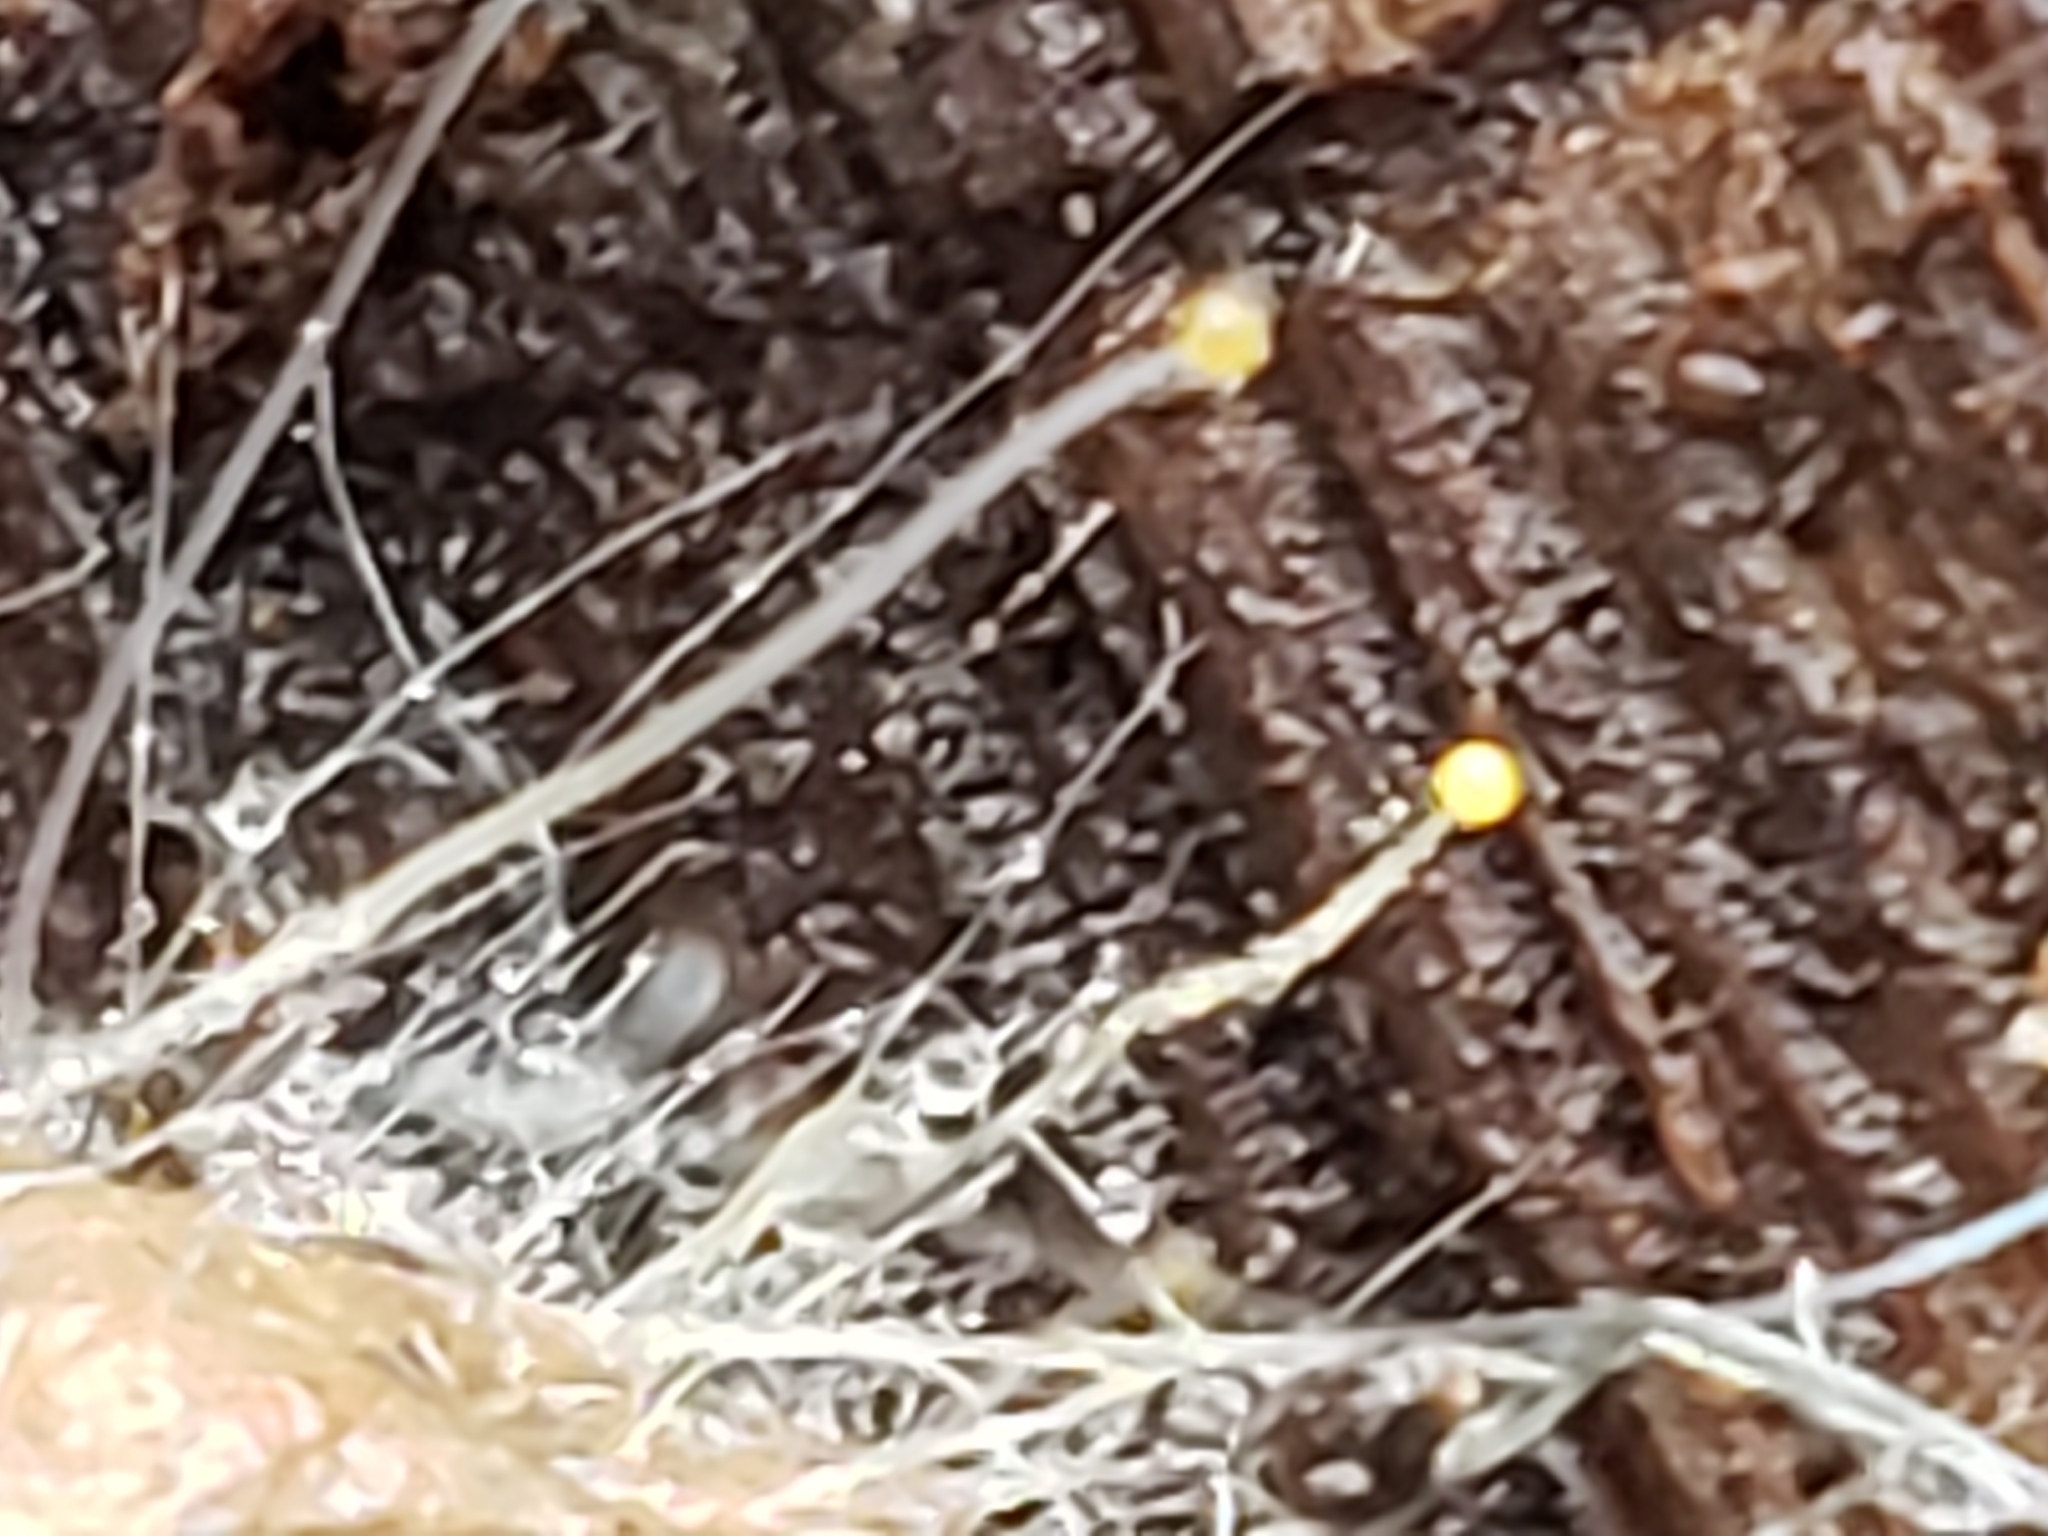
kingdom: Fungi
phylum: Mucoromycota
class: Mucoromycetes
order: Mucorales
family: Phycomycetaceae
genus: Phycomyces
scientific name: Phycomyces
